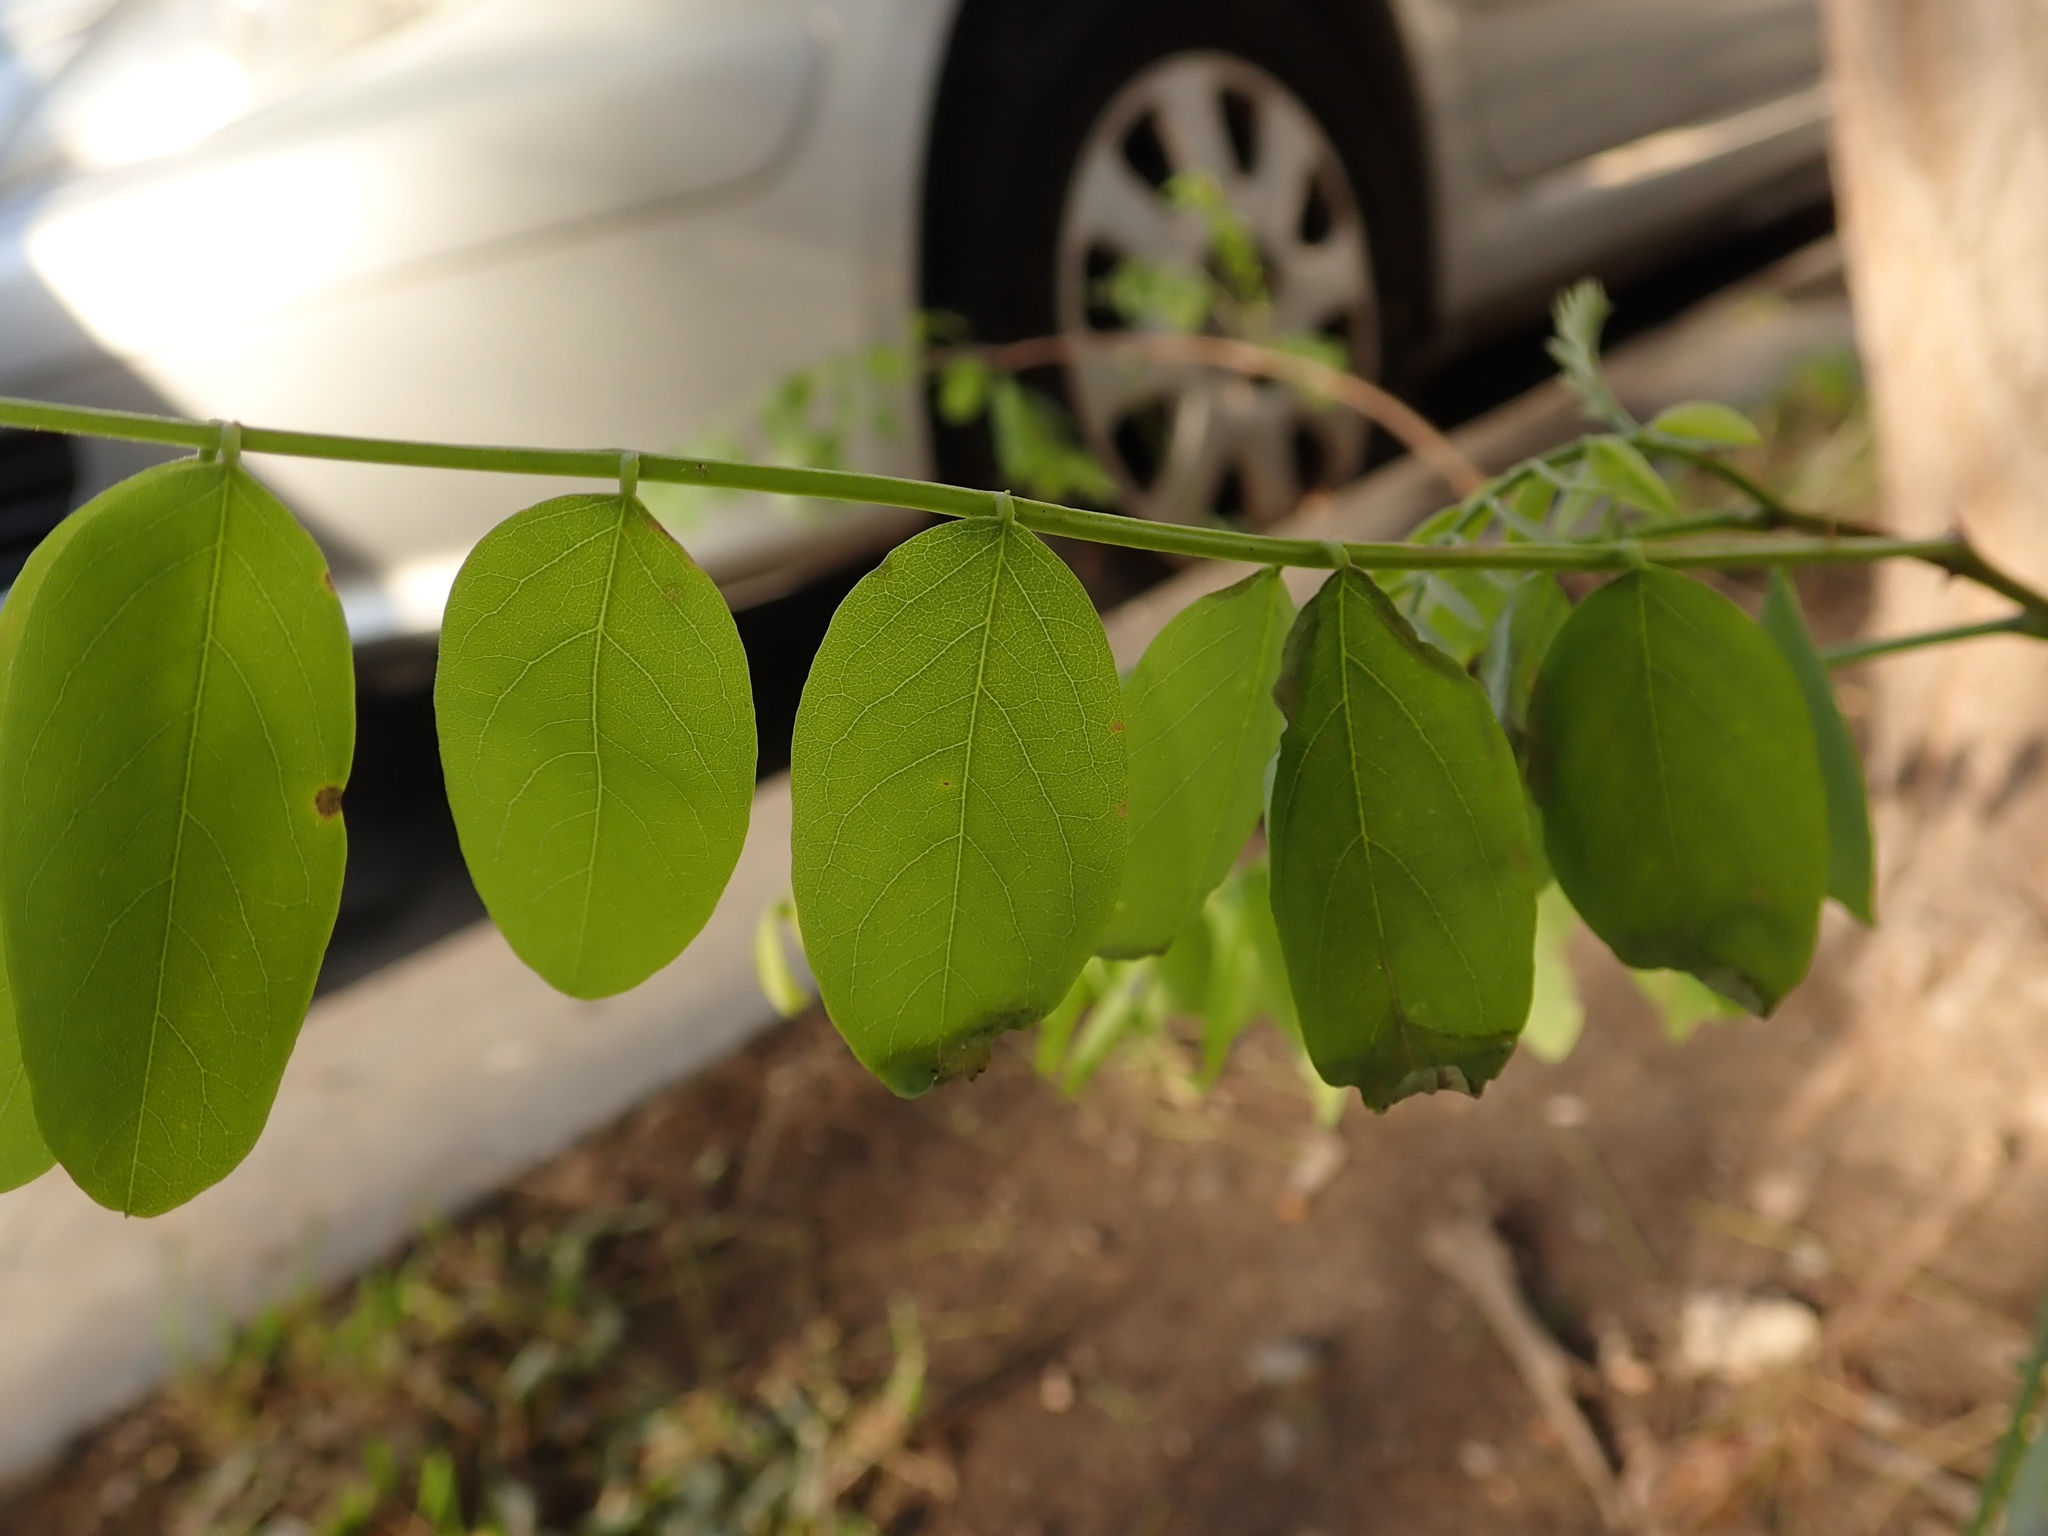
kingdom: Plantae
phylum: Tracheophyta
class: Magnoliopsida
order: Fabales
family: Fabaceae
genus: Robinia
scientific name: Robinia pseudoacacia
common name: Black locust
